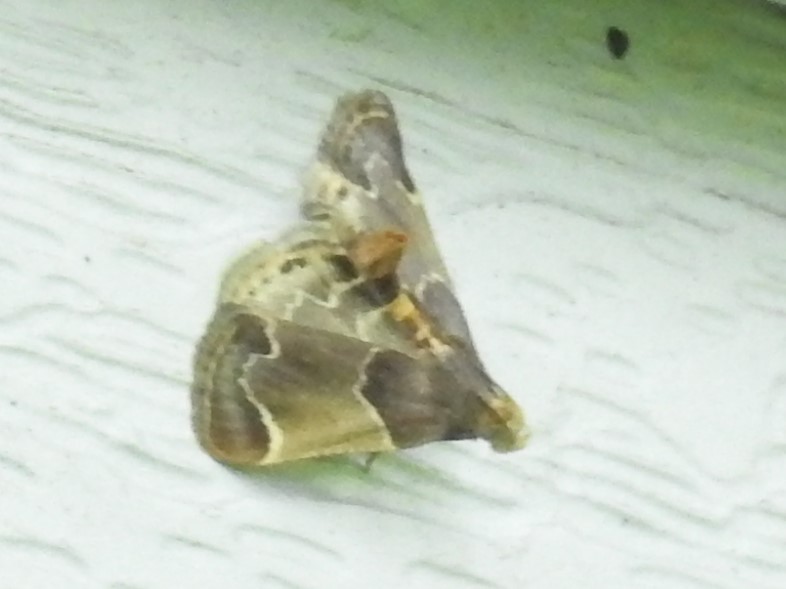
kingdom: Animalia
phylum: Arthropoda
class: Insecta
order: Lepidoptera
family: Pyralidae
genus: Pyralis
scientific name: Pyralis farinalis
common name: Meal moth
